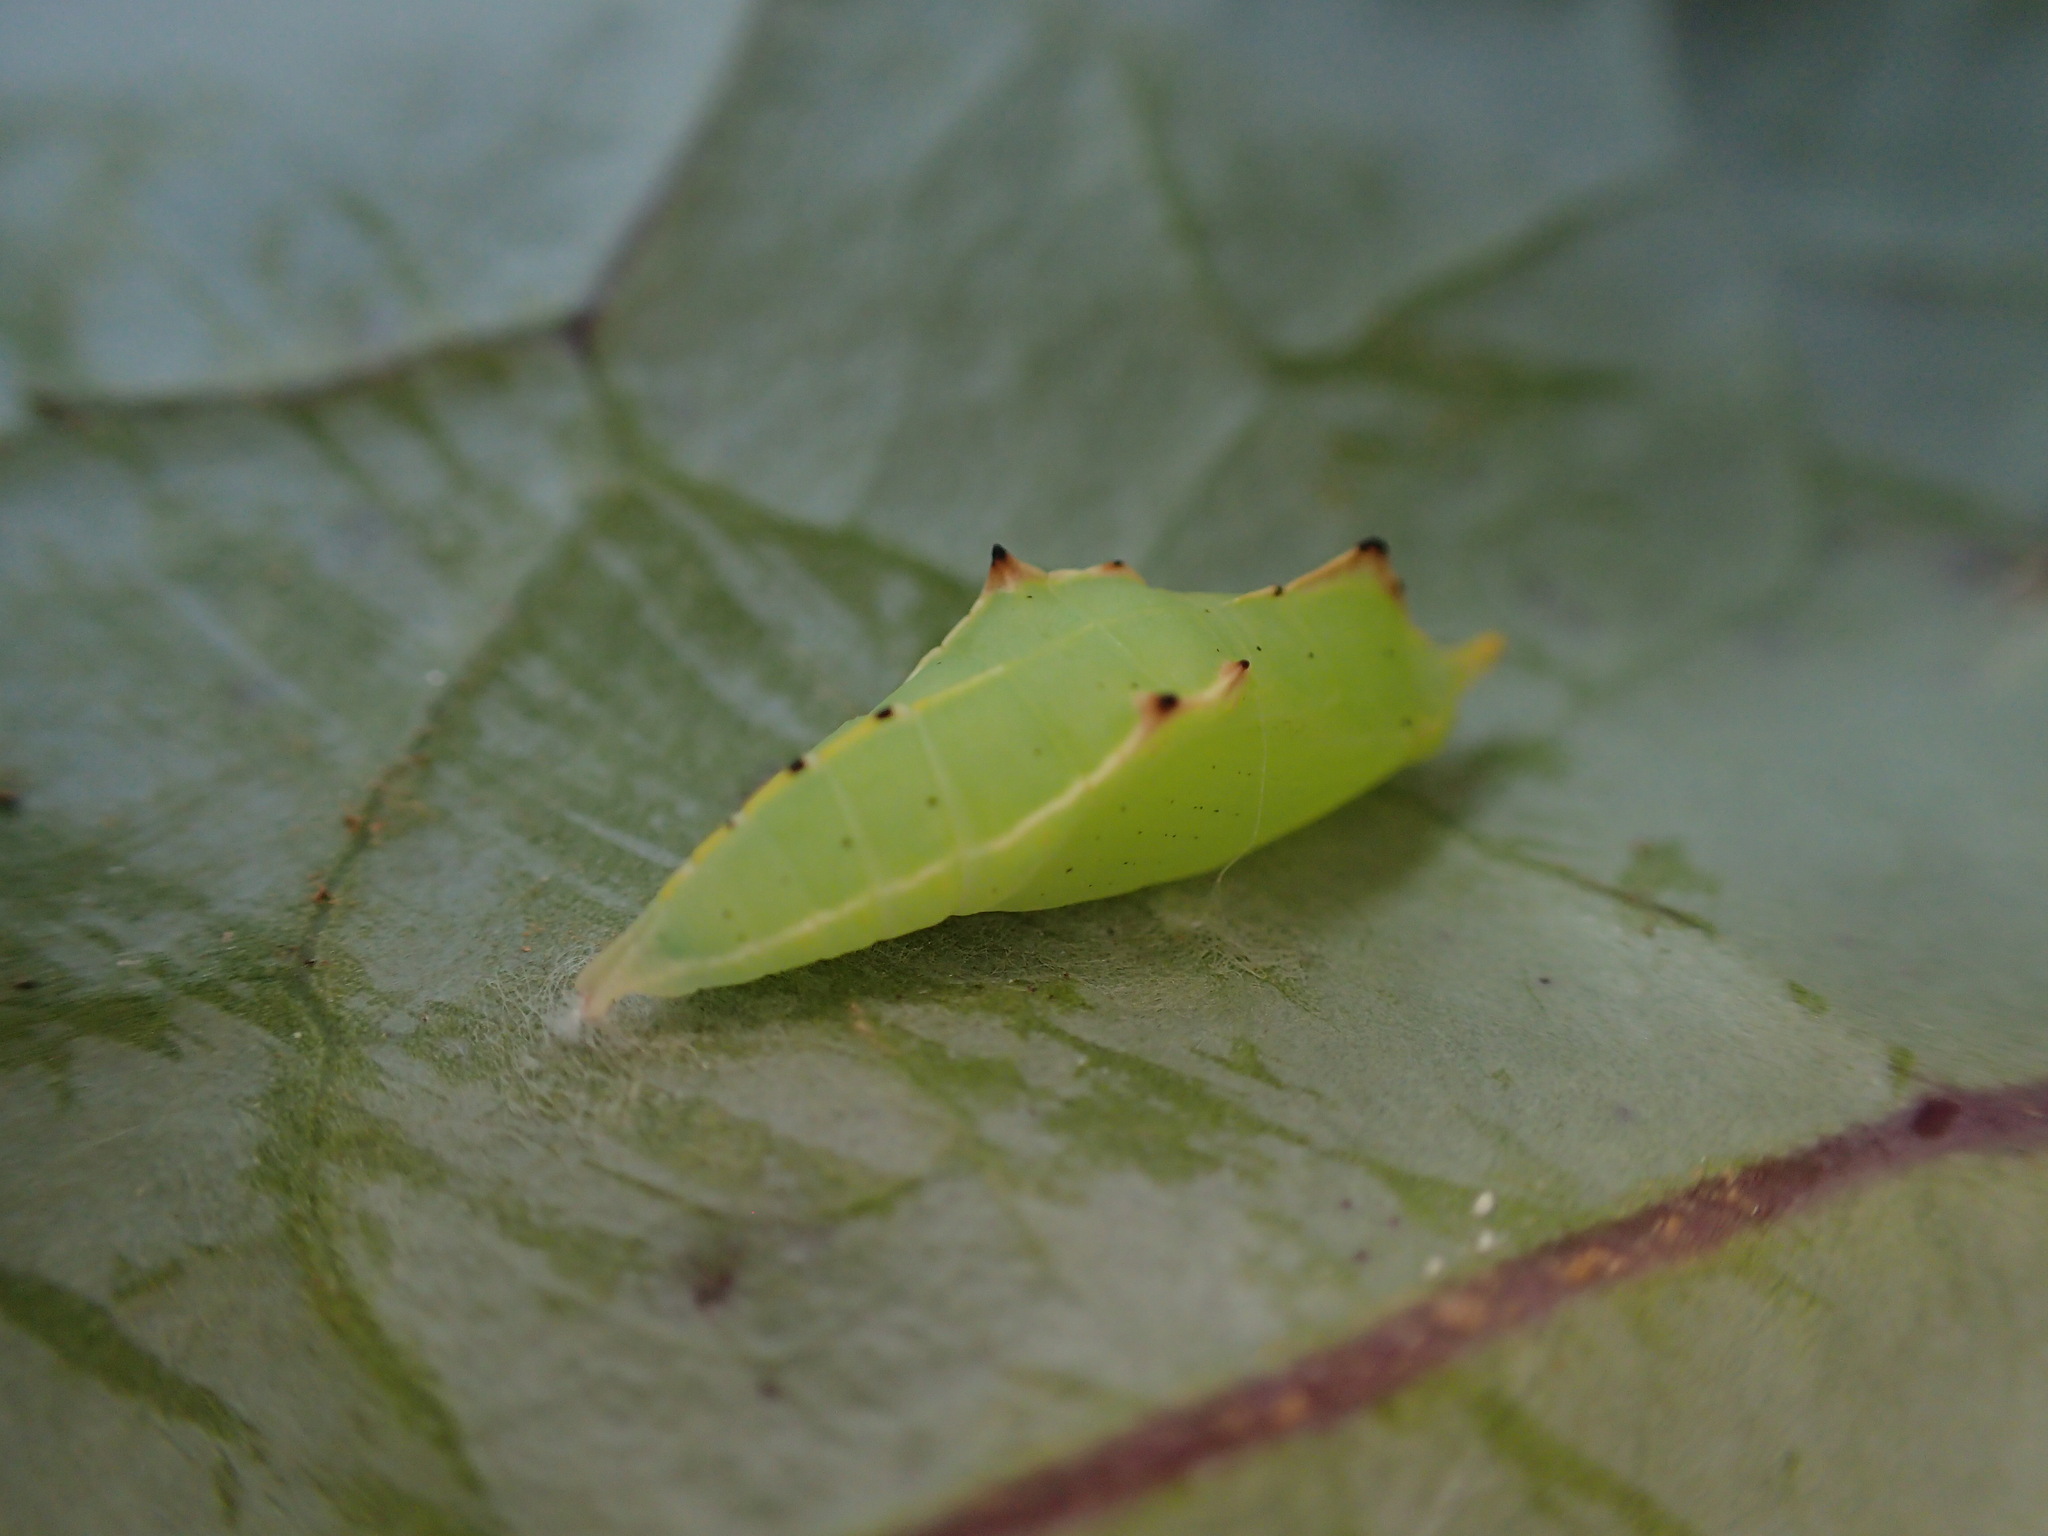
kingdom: Animalia
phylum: Arthropoda
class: Insecta
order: Lepidoptera
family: Pieridae
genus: Pieris
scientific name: Pieris rapae
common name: Small white
